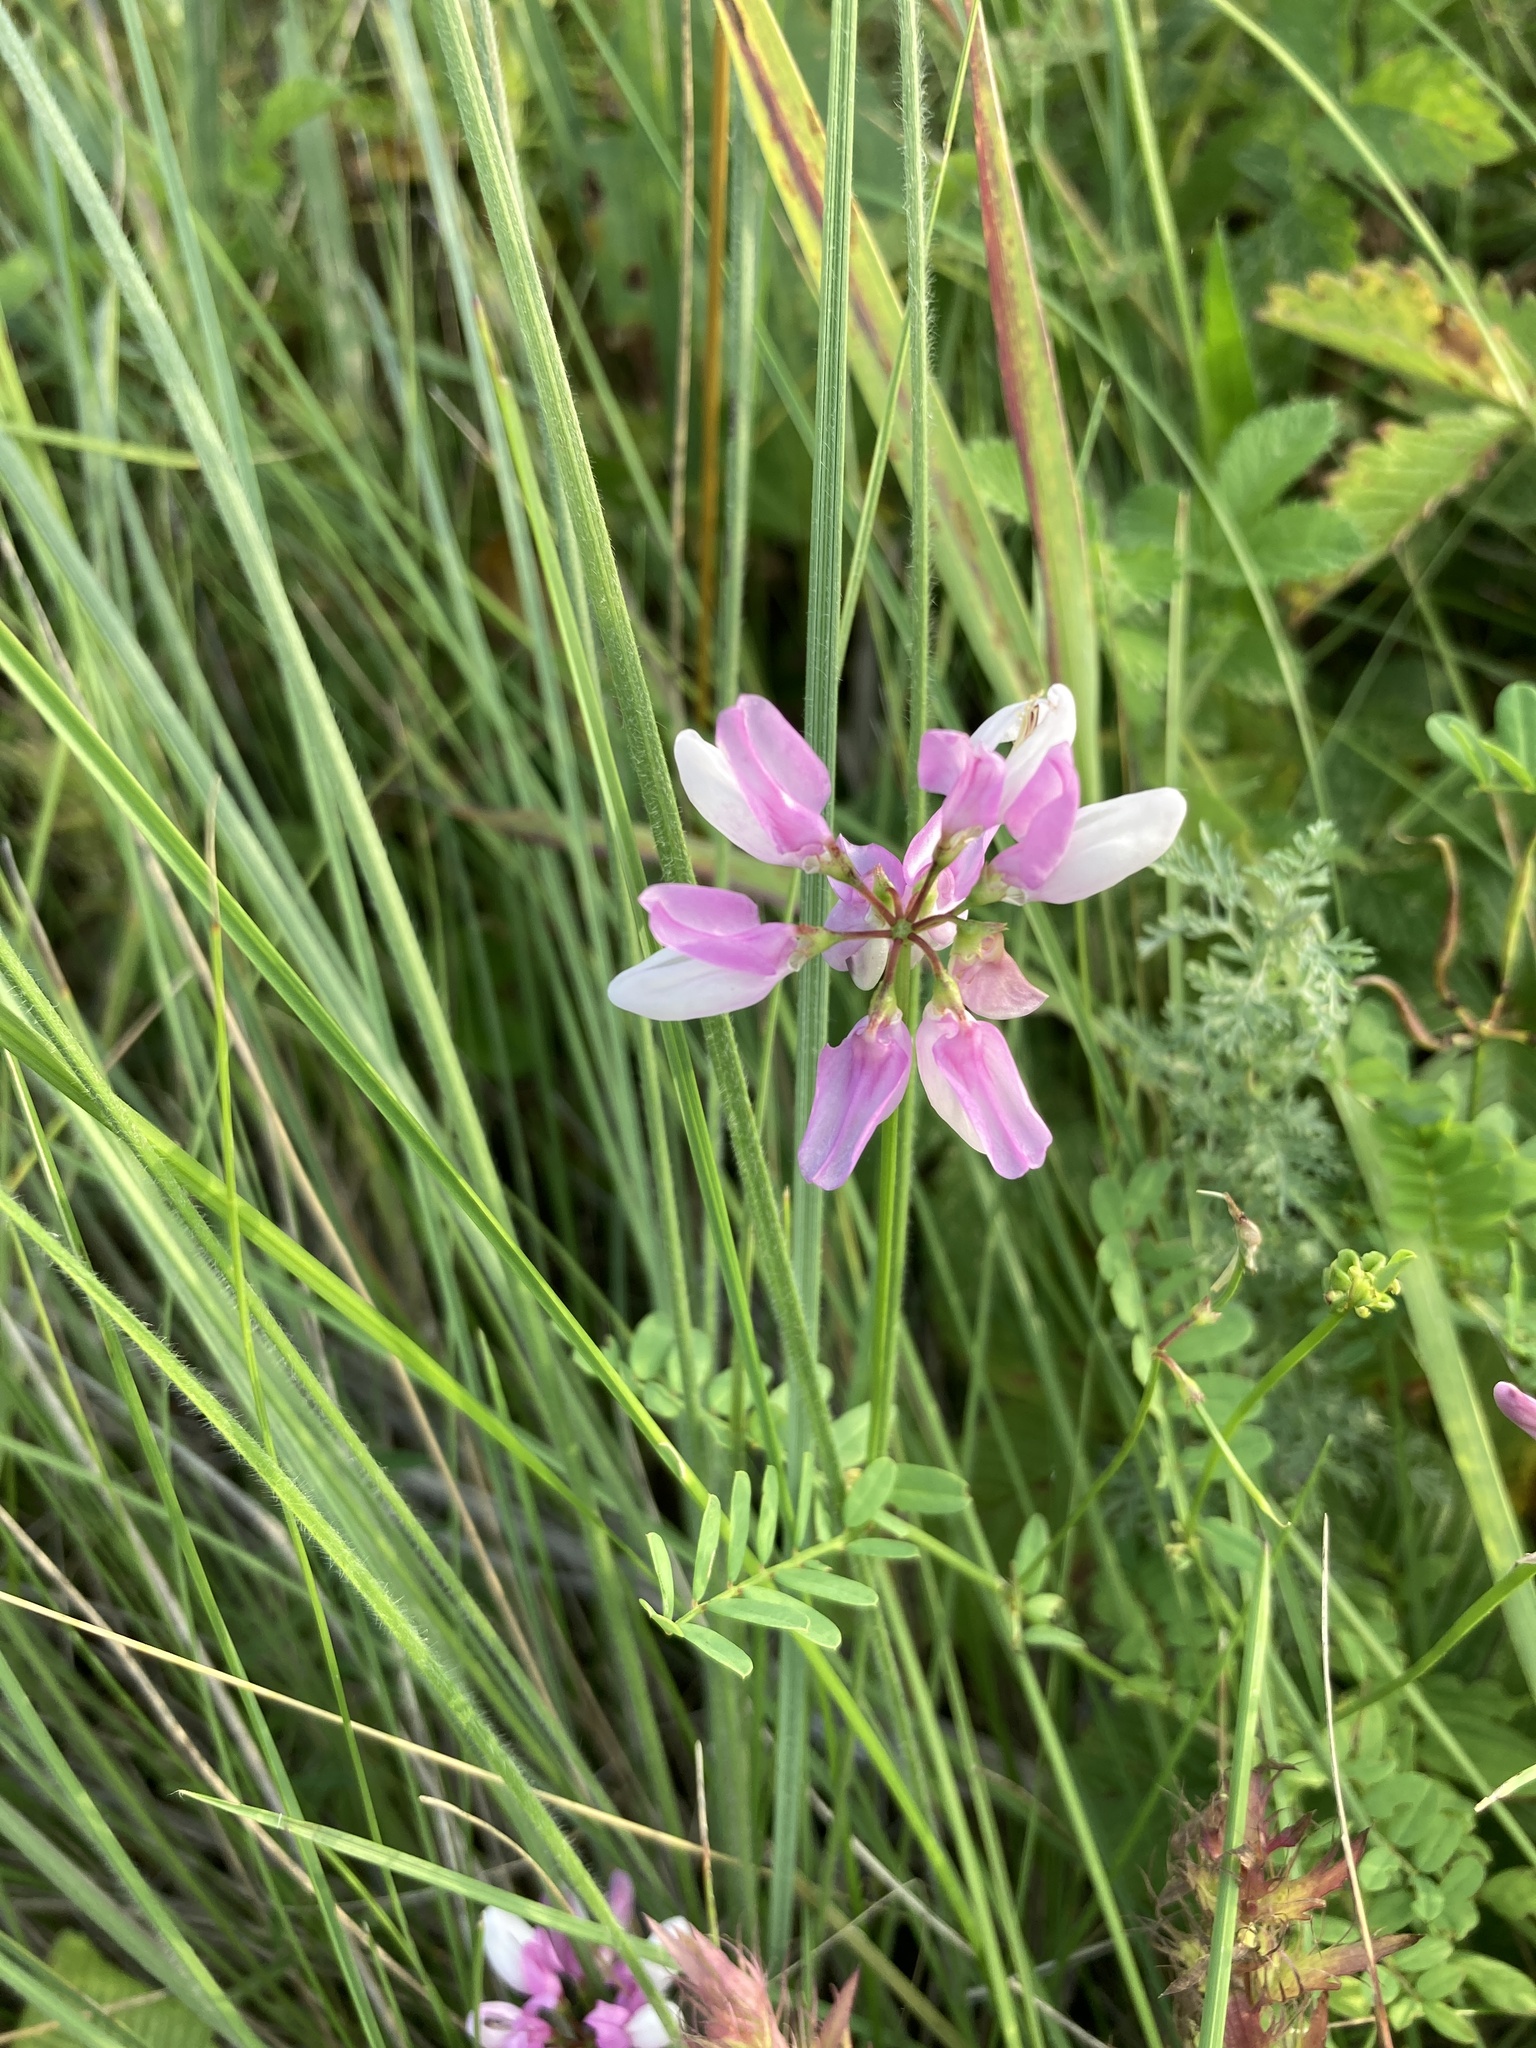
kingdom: Plantae
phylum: Tracheophyta
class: Magnoliopsida
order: Fabales
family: Fabaceae
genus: Coronilla
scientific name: Coronilla varia
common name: Crownvetch
